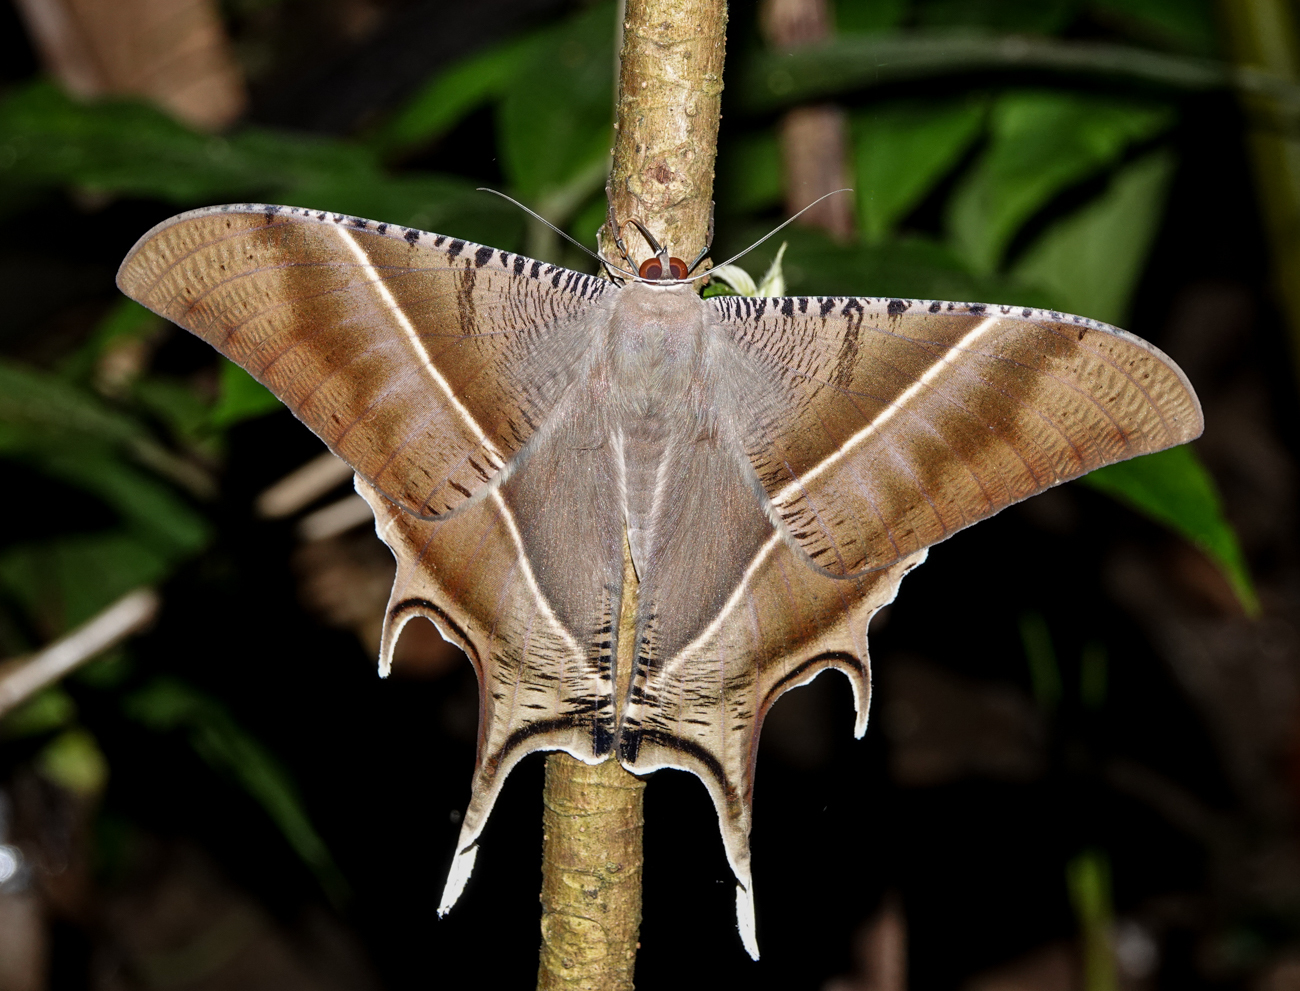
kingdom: Animalia
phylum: Arthropoda
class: Insecta
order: Lepidoptera
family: Uraniidae
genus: Lyssa
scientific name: Lyssa zampa
